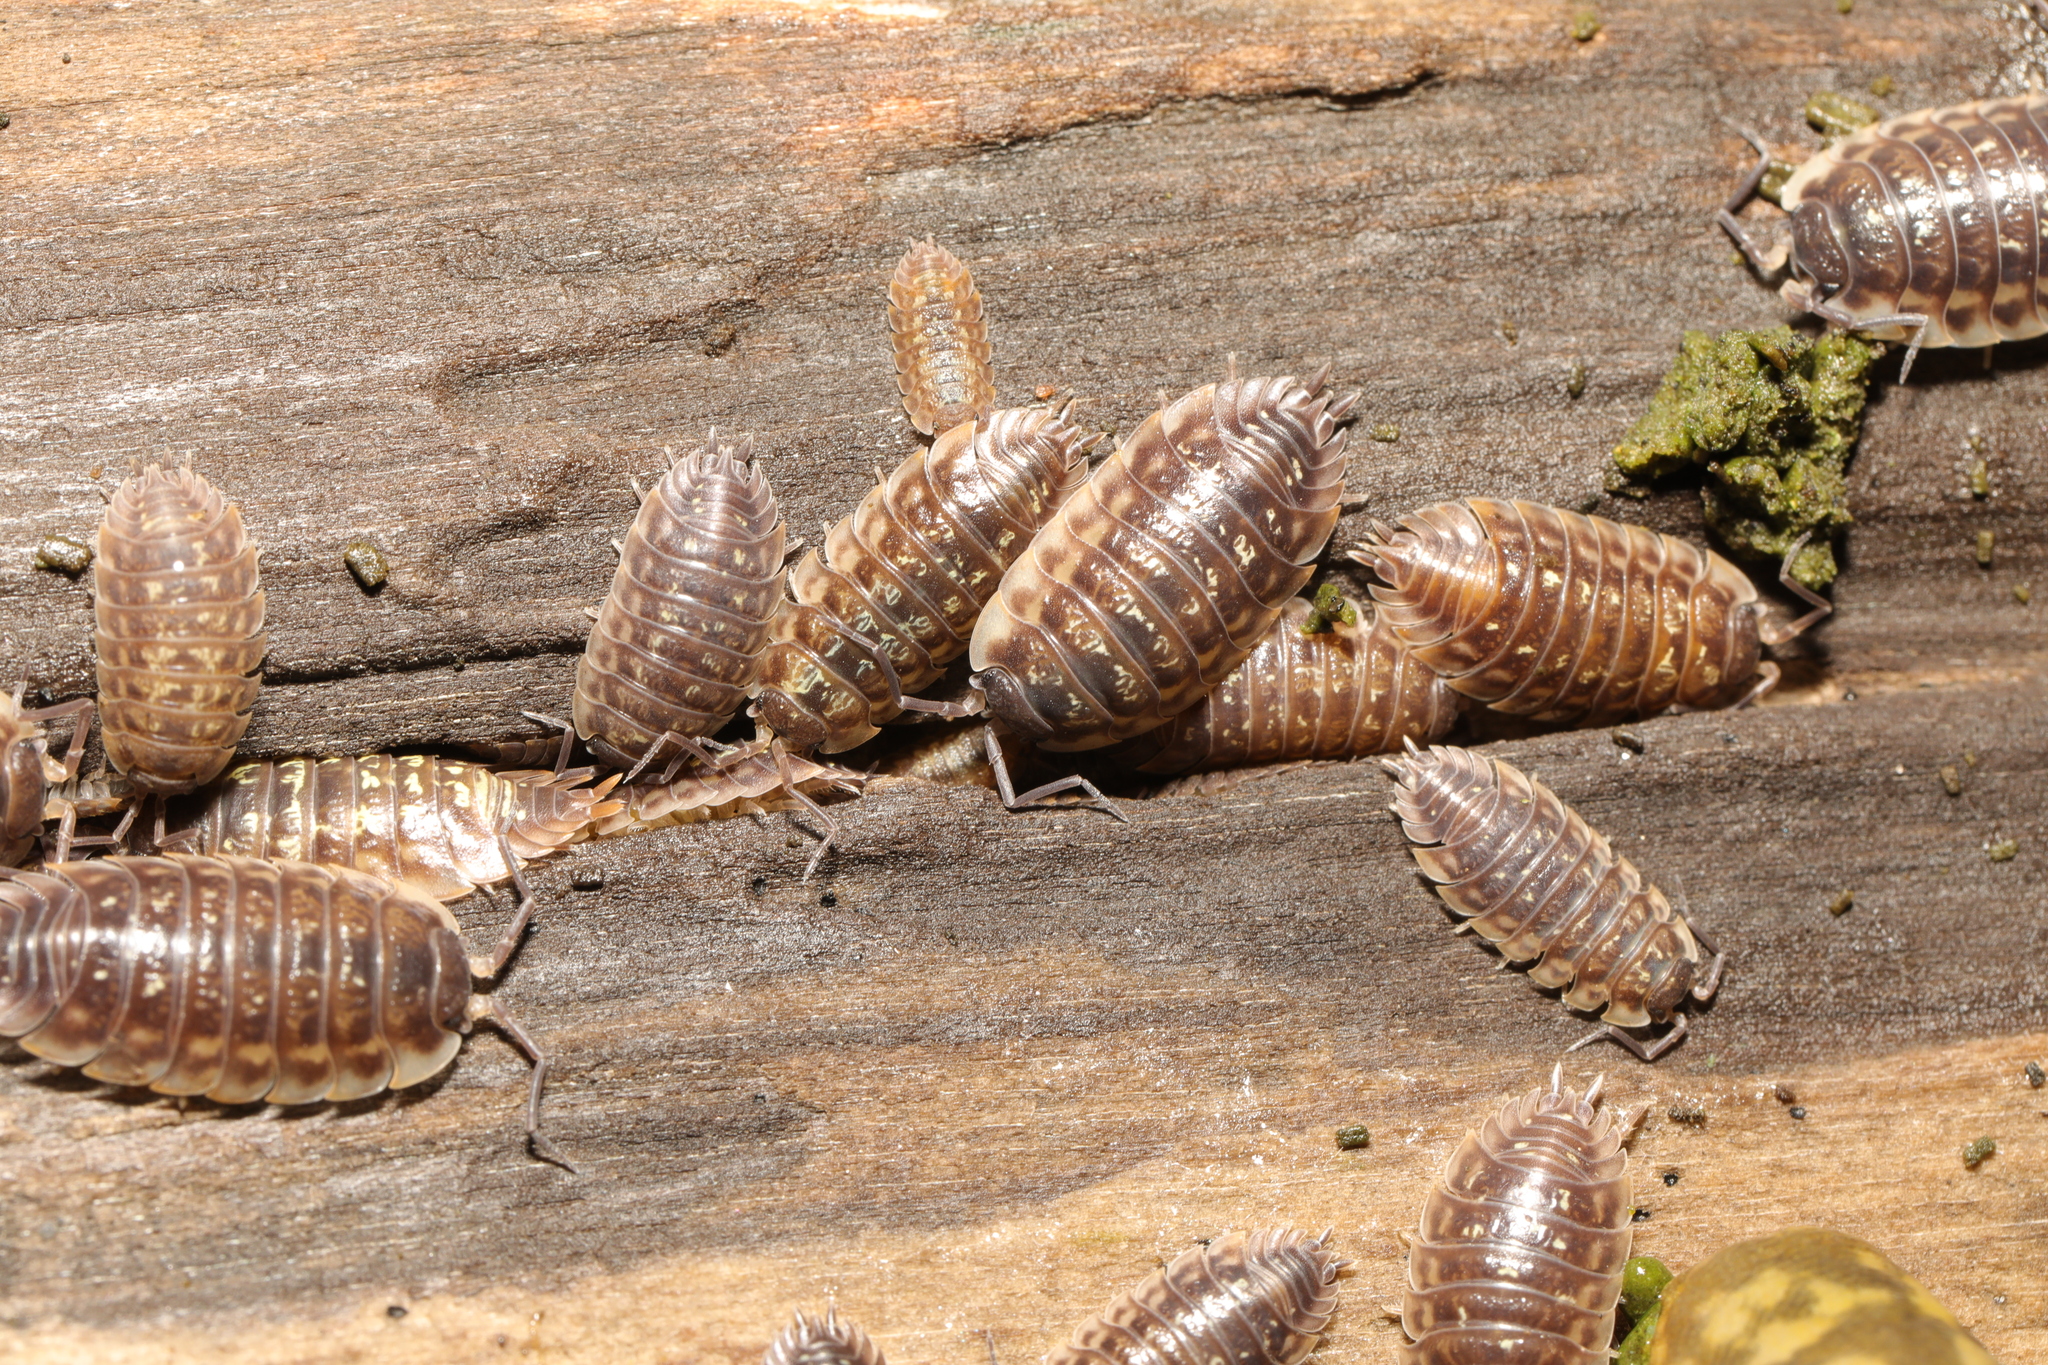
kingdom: Animalia
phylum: Arthropoda
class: Malacostraca
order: Isopoda
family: Oniscidae
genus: Oniscus
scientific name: Oniscus asellus
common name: Common shiny woodlouse
